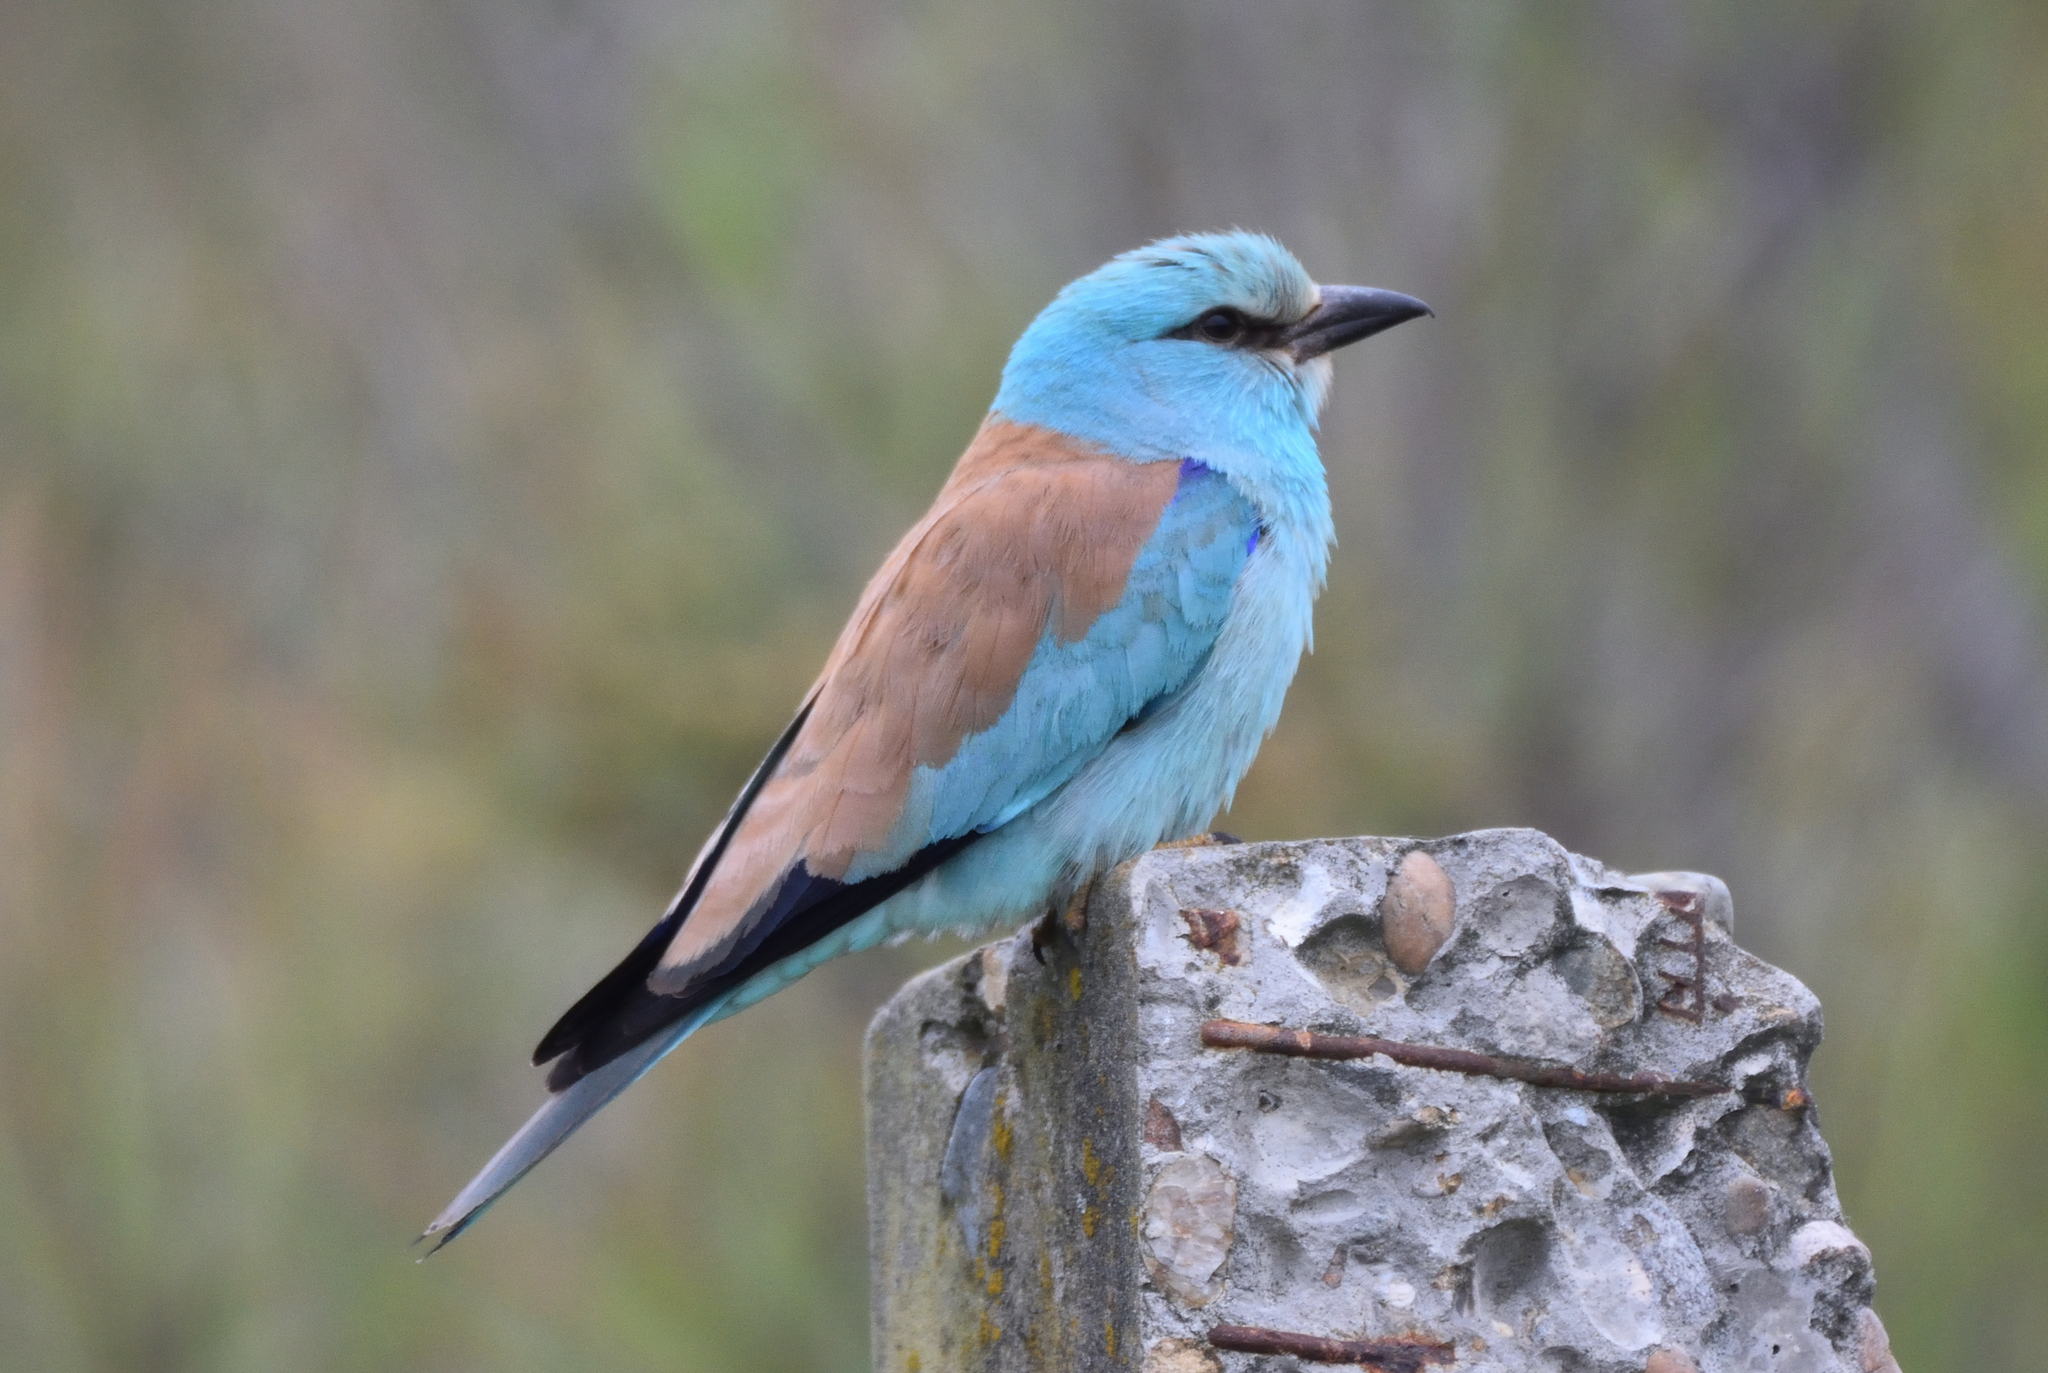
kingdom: Animalia
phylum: Chordata
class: Aves
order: Coraciiformes
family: Coraciidae
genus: Coracias
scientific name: Coracias garrulus
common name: European roller
